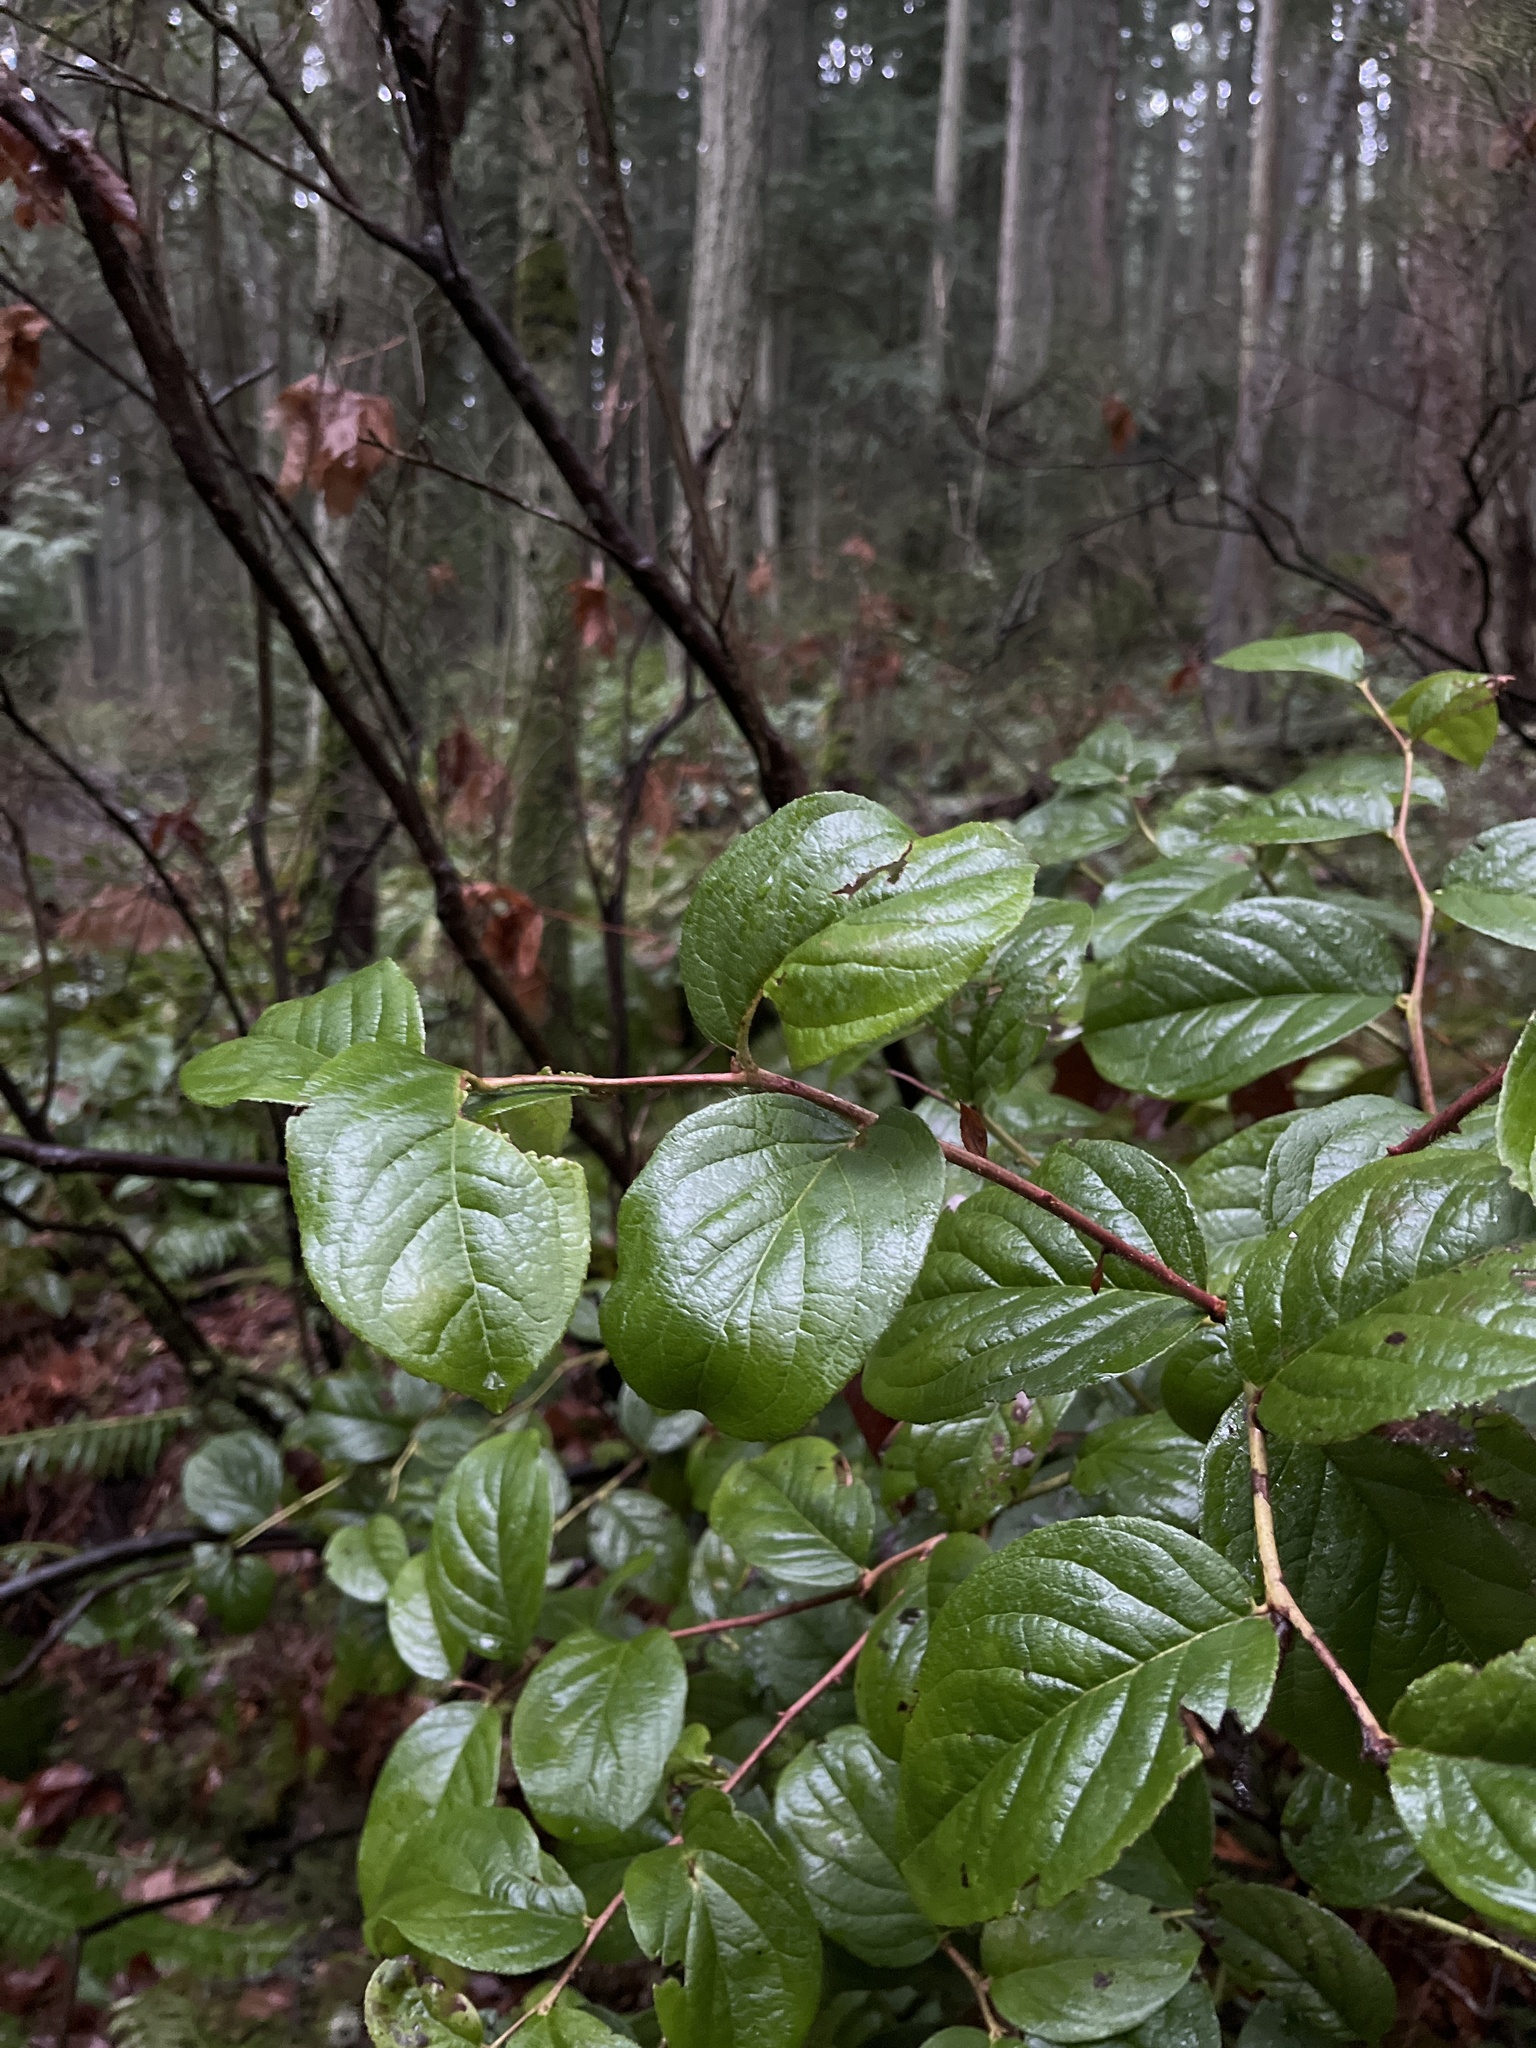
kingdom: Plantae
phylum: Tracheophyta
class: Magnoliopsida
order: Ericales
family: Ericaceae
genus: Gaultheria
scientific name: Gaultheria shallon
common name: Shallon
